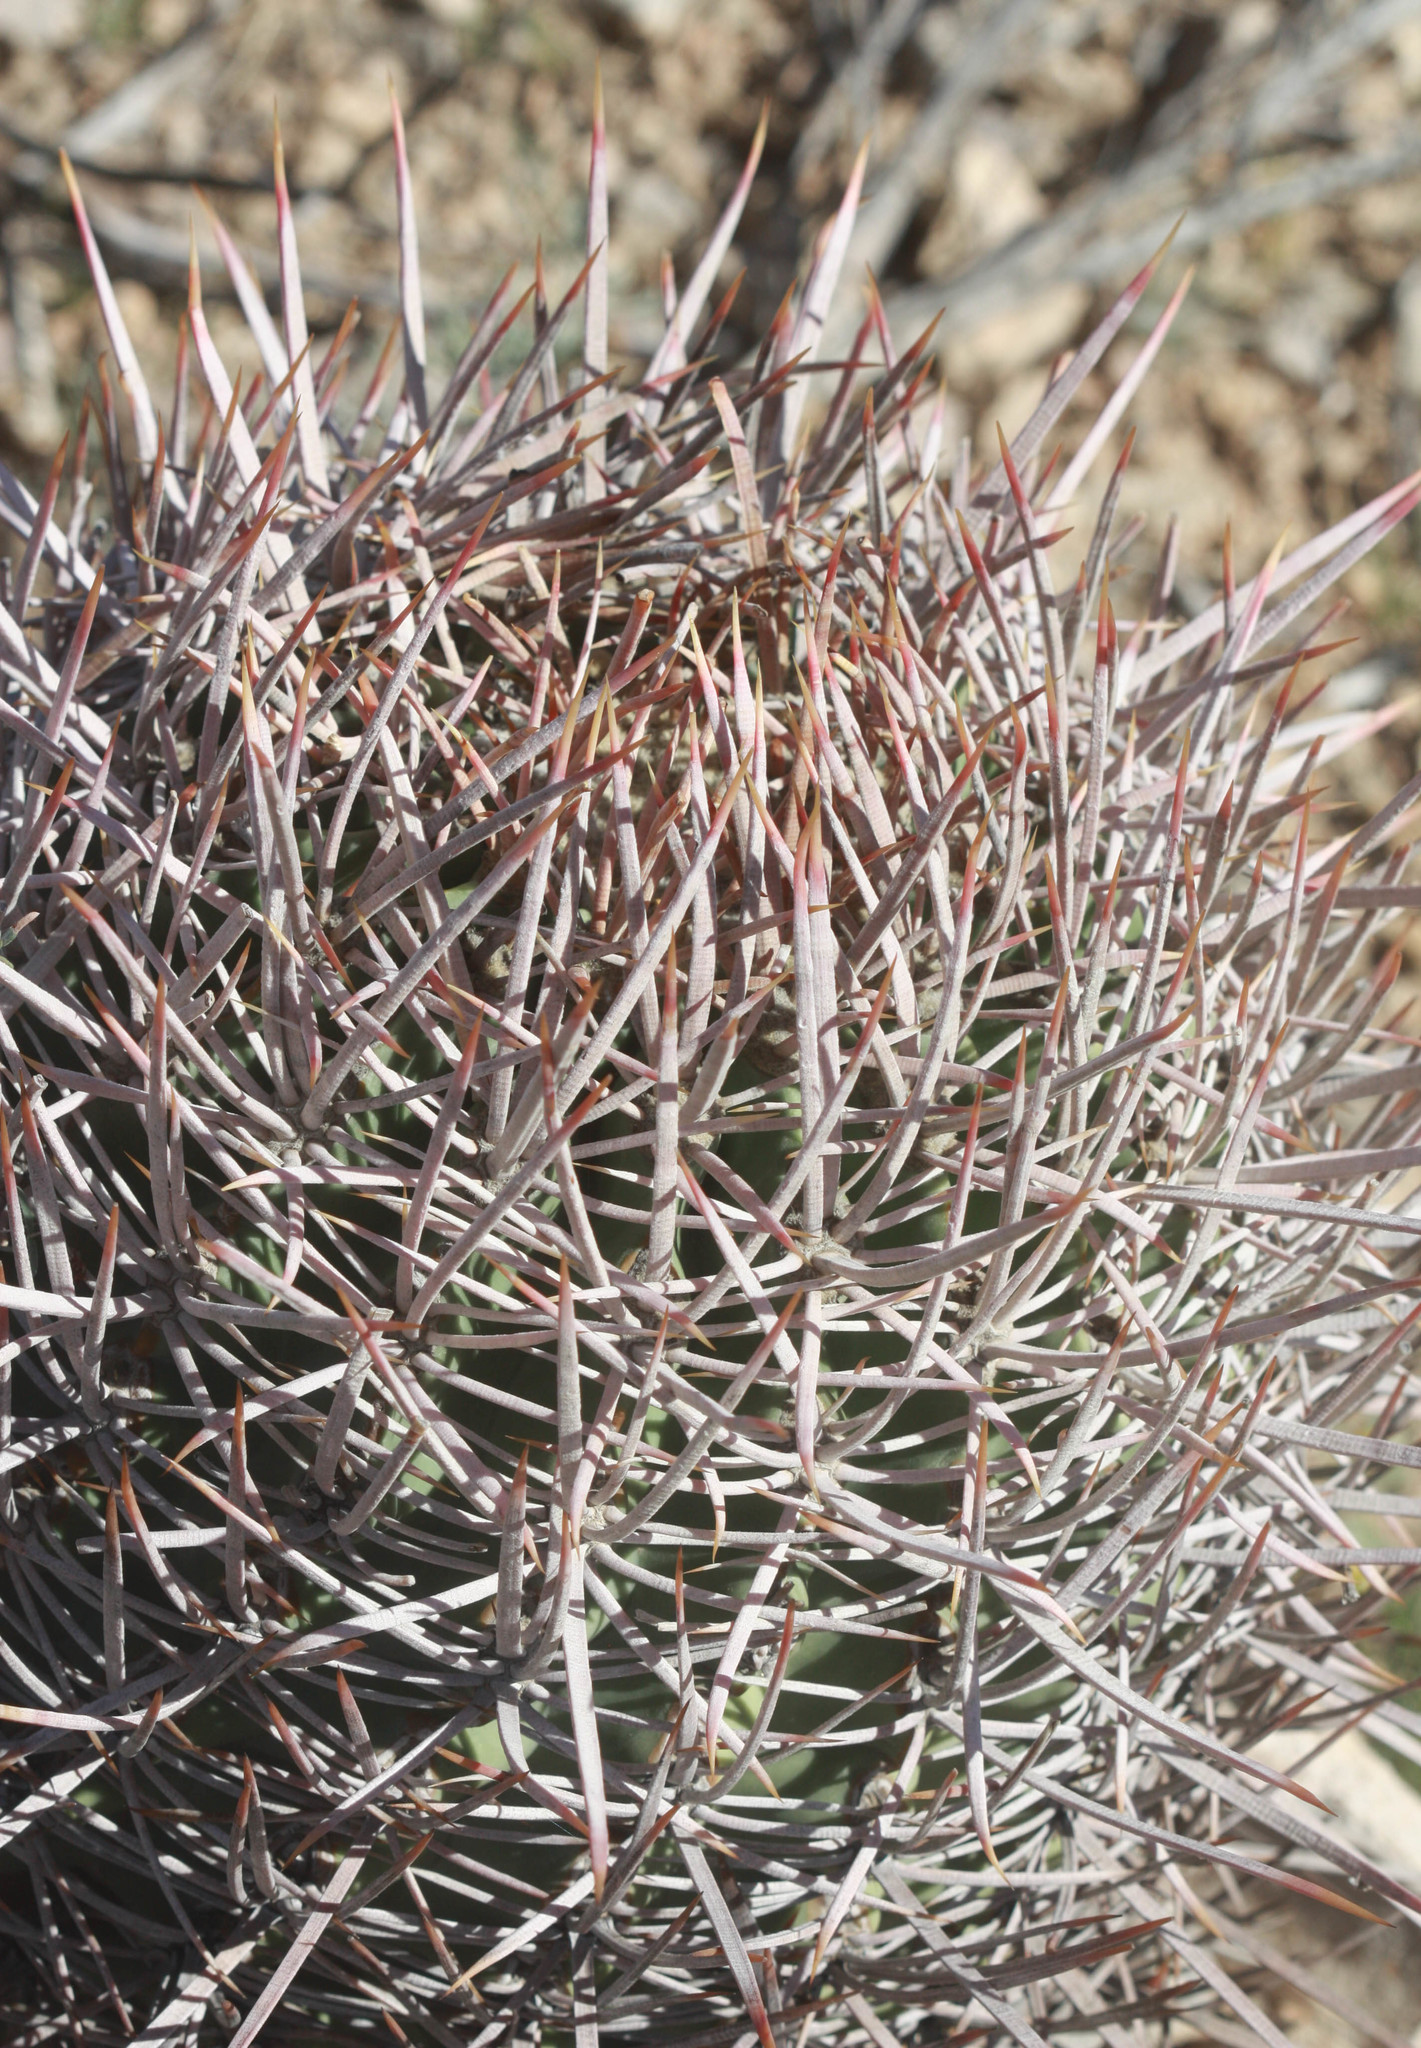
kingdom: Plantae
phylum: Tracheophyta
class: Magnoliopsida
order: Caryophyllales
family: Cactaceae
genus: Echinocactus
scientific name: Echinocactus polycephalus
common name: Cottontop cactus
